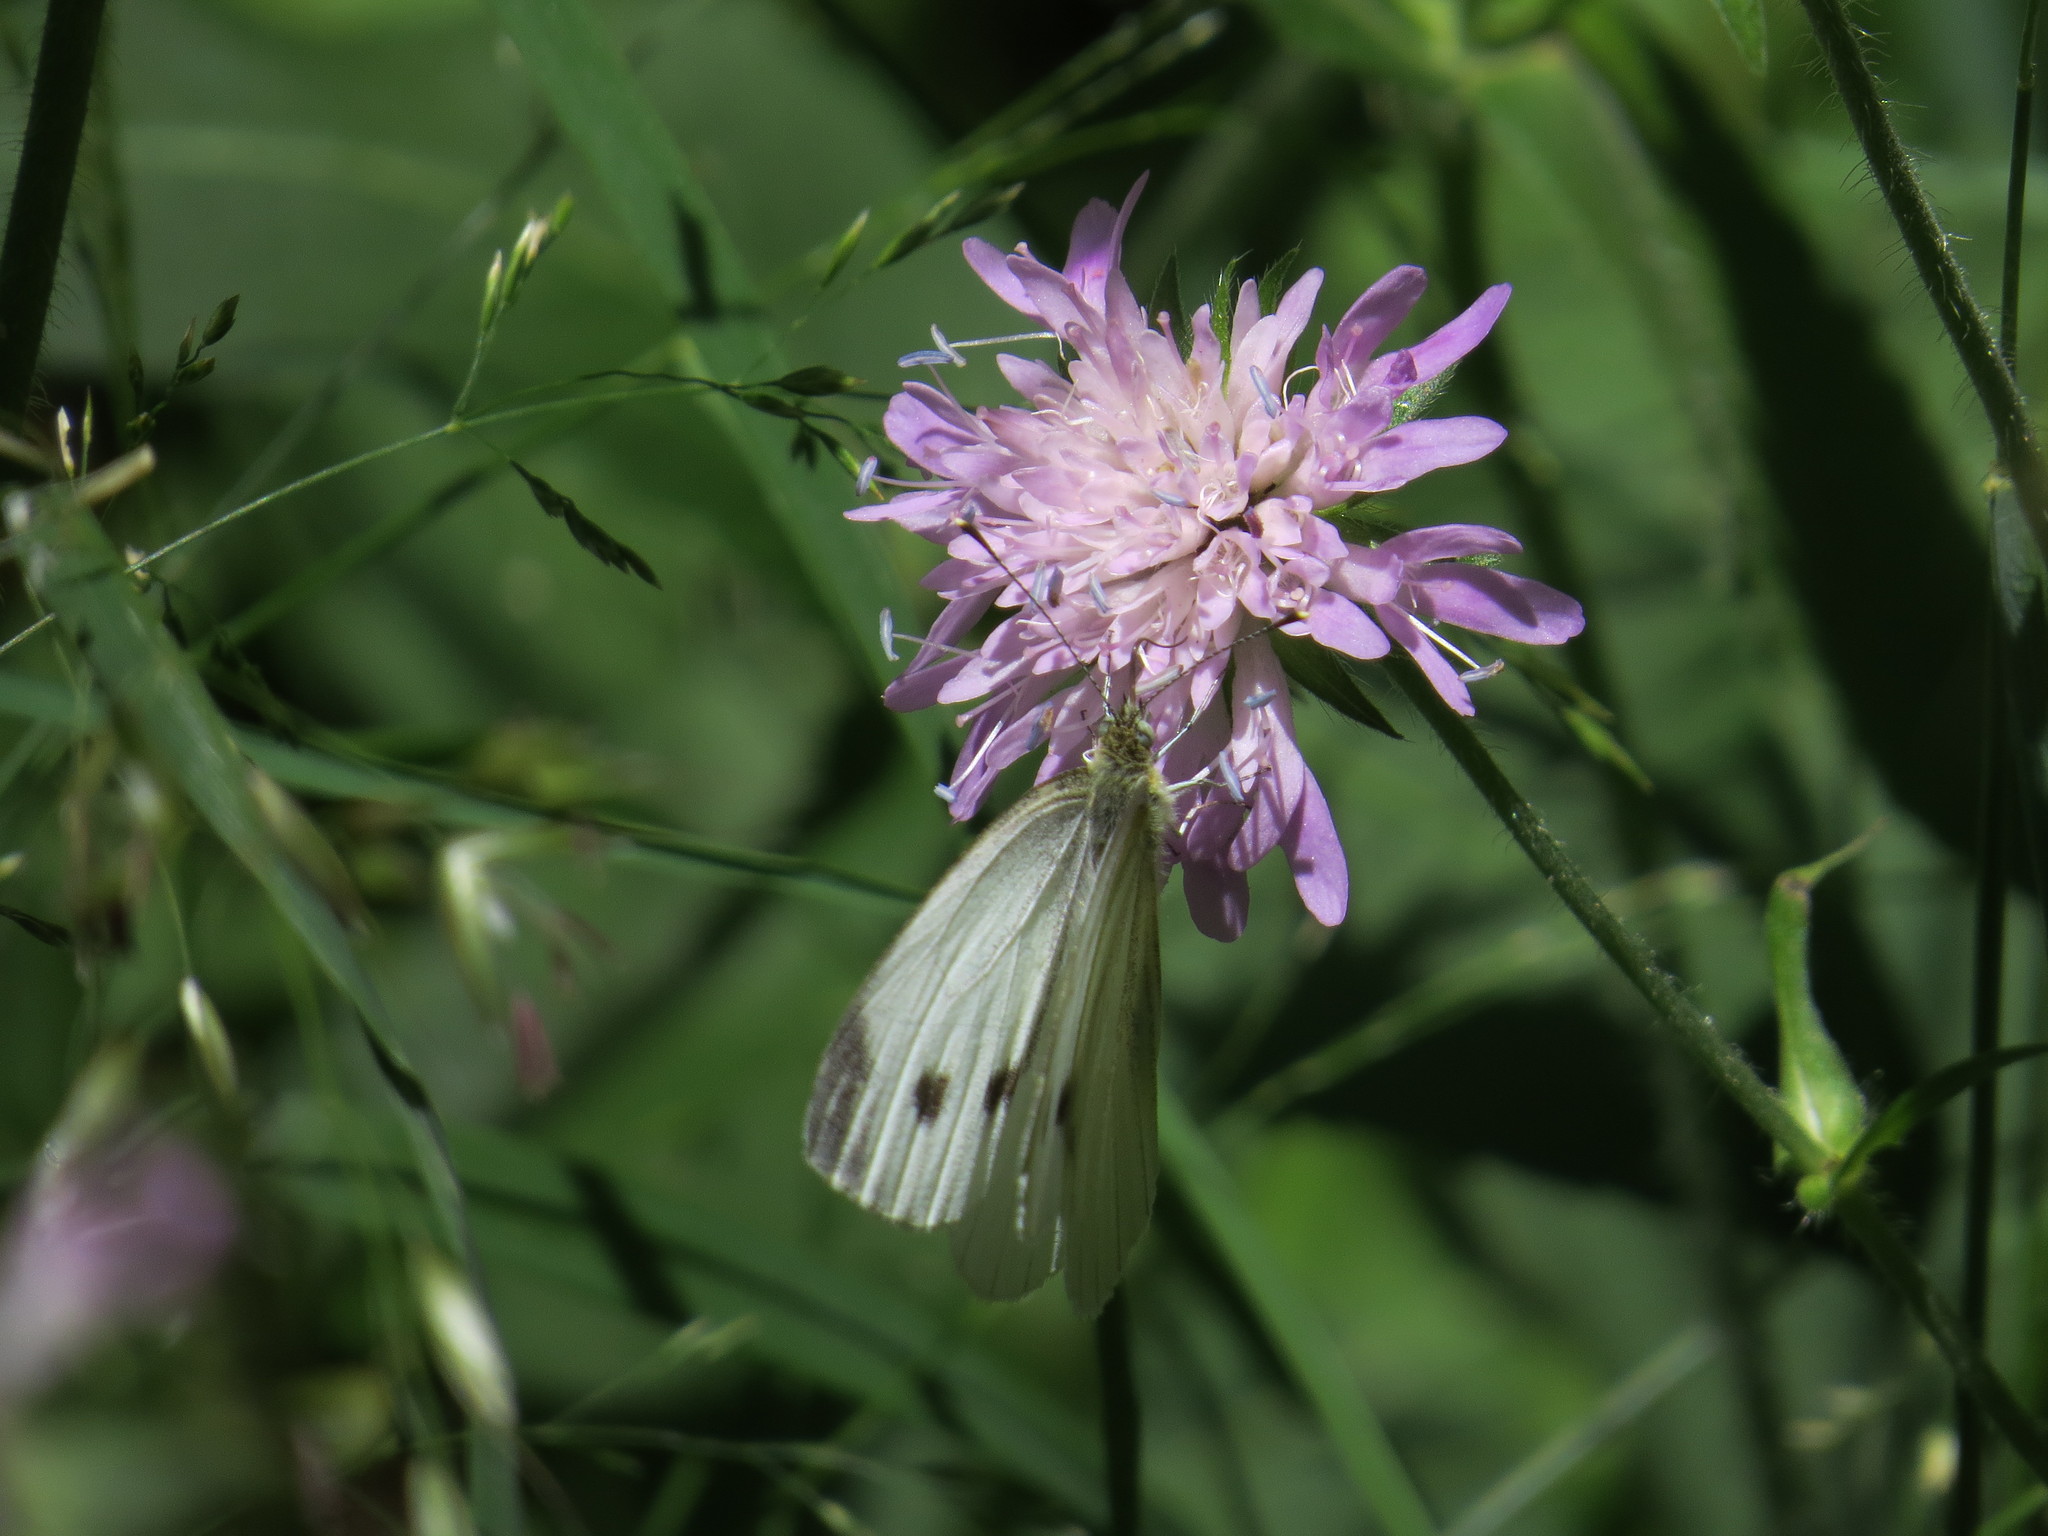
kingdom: Animalia
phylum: Arthropoda
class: Insecta
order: Lepidoptera
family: Pieridae
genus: Pieris
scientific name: Pieris napi
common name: Green-veined white
